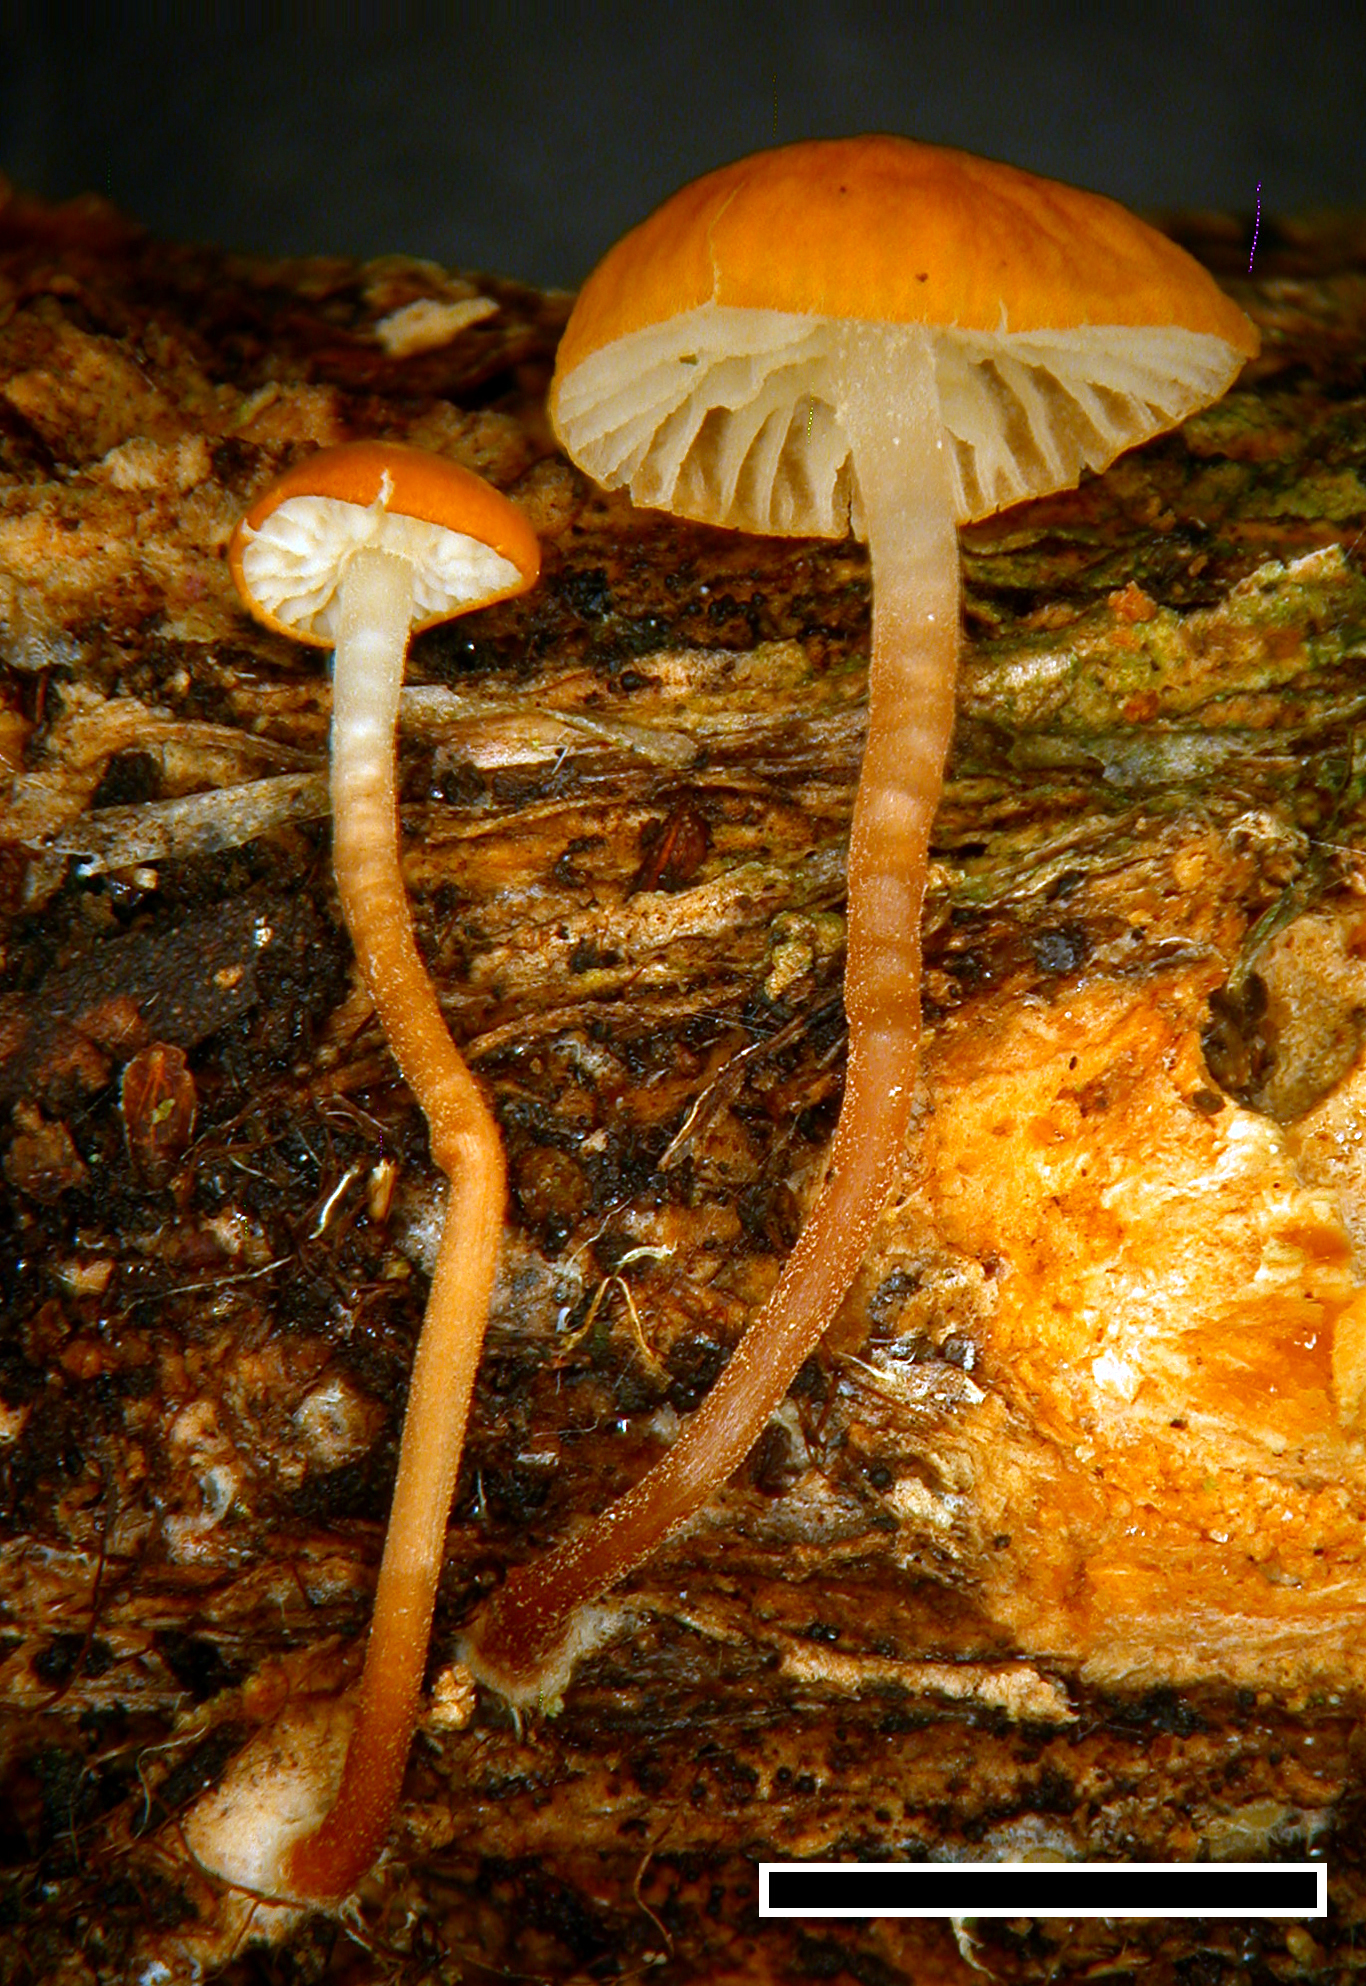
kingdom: Fungi
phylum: Basidiomycota
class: Agaricomycetes
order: Agaricales
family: Marasmiaceae
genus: Marasmius
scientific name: Marasmius croceus
